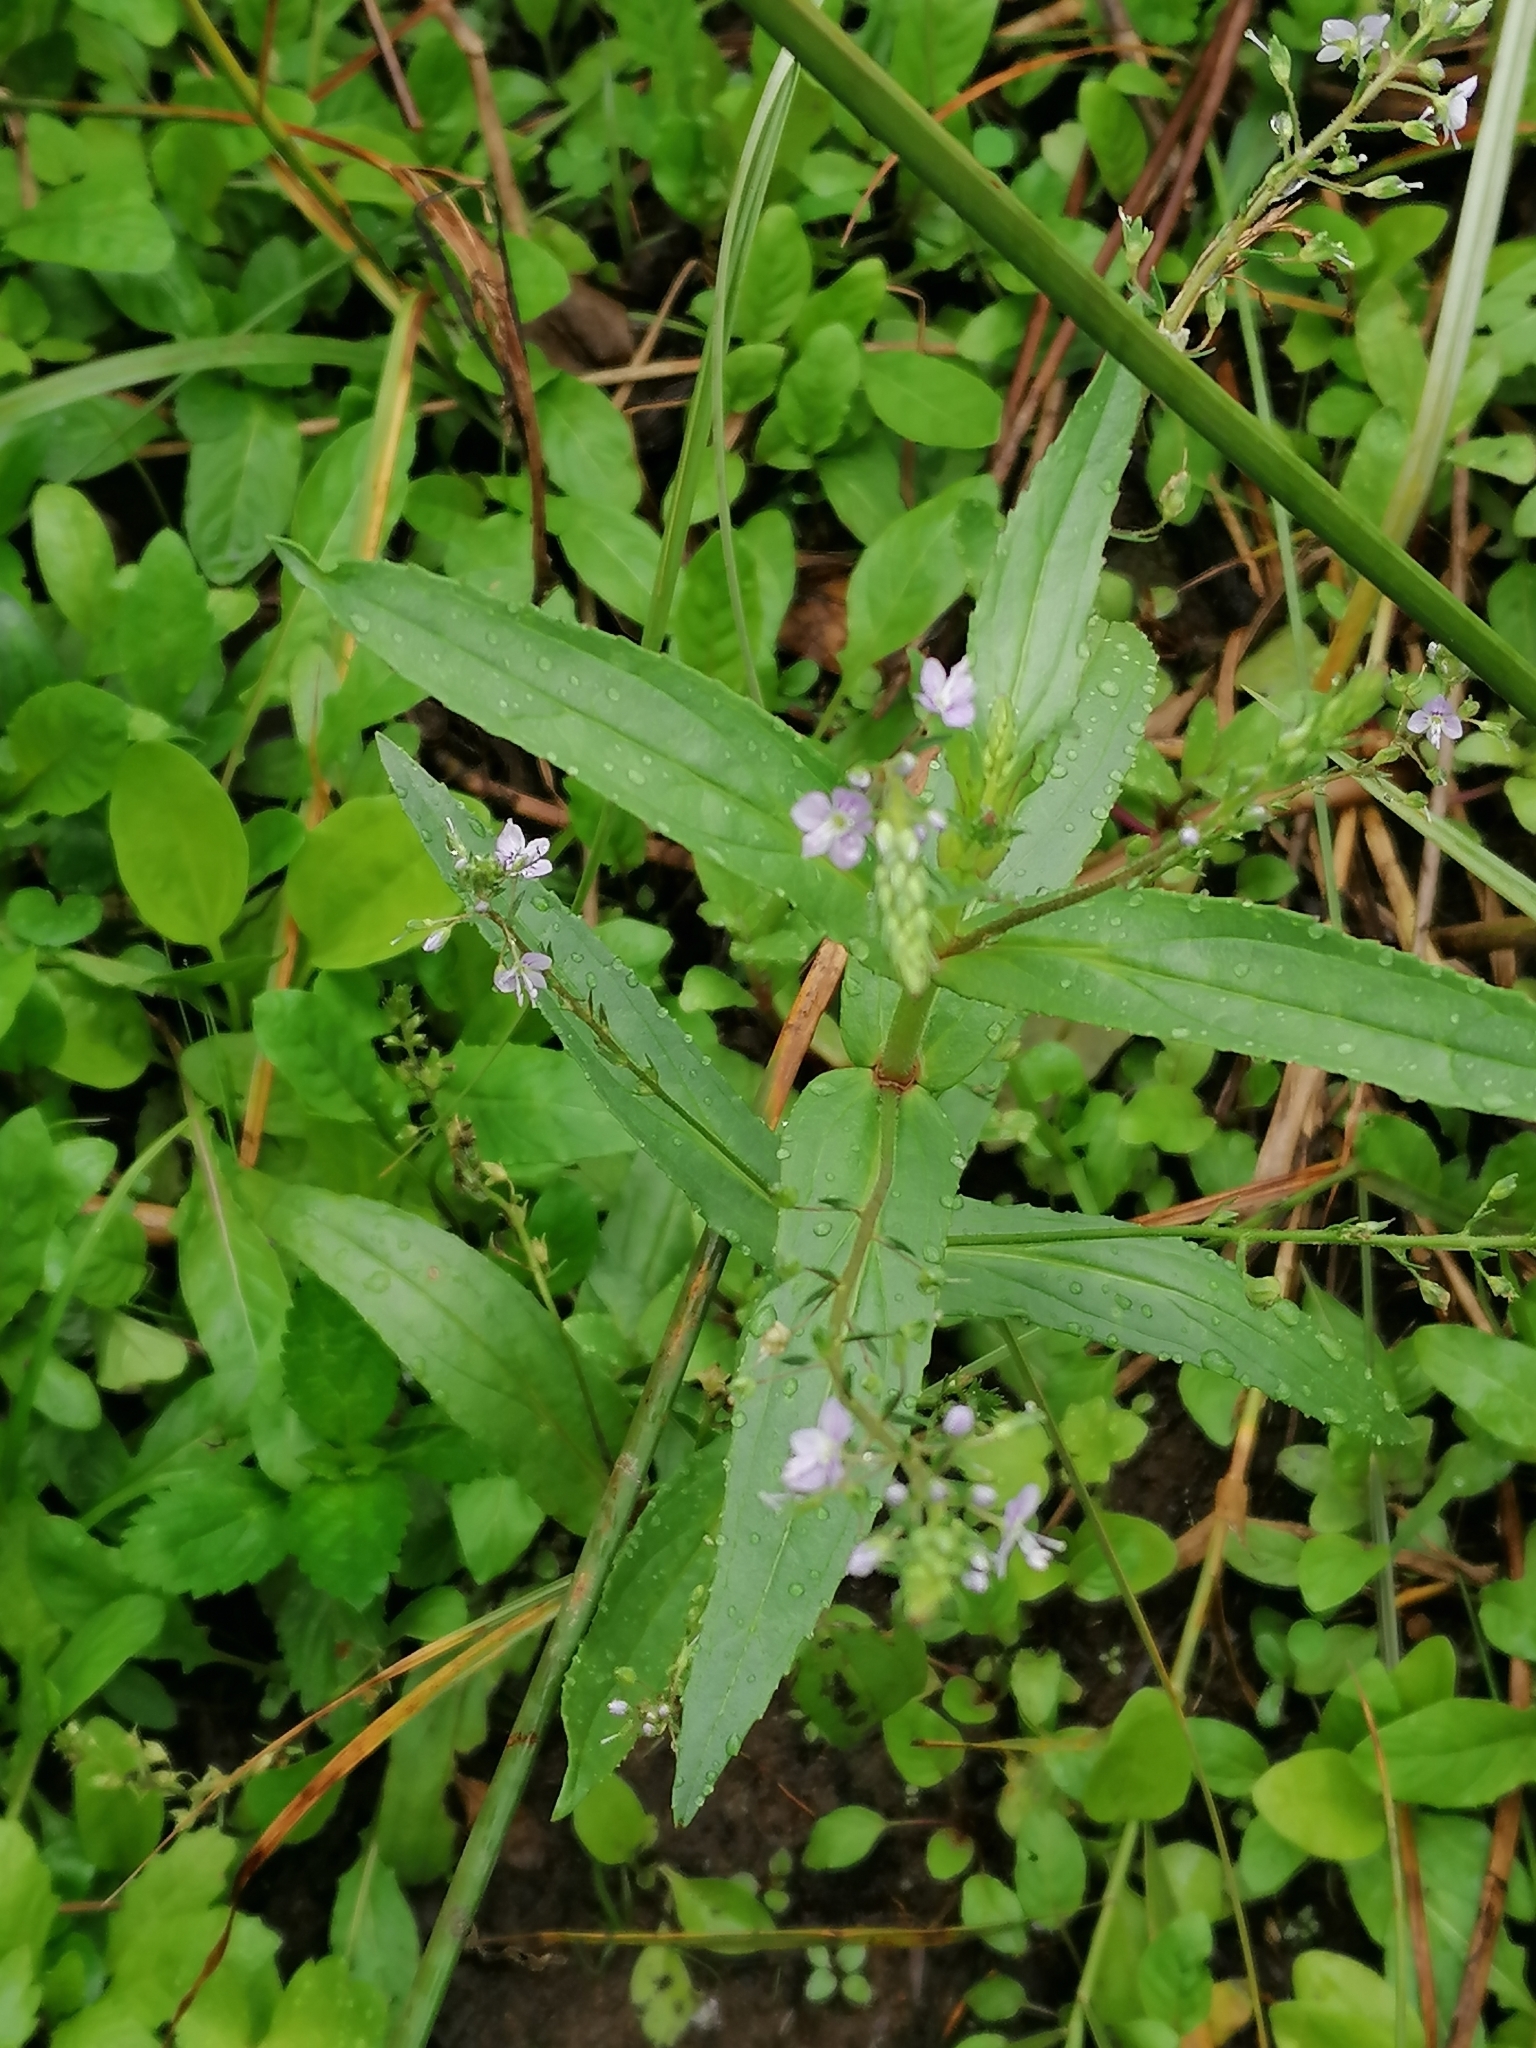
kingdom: Plantae
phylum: Tracheophyta
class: Magnoliopsida
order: Lamiales
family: Plantaginaceae
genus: Veronica
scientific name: Veronica anagallis-aquatica
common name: Water speedwell
